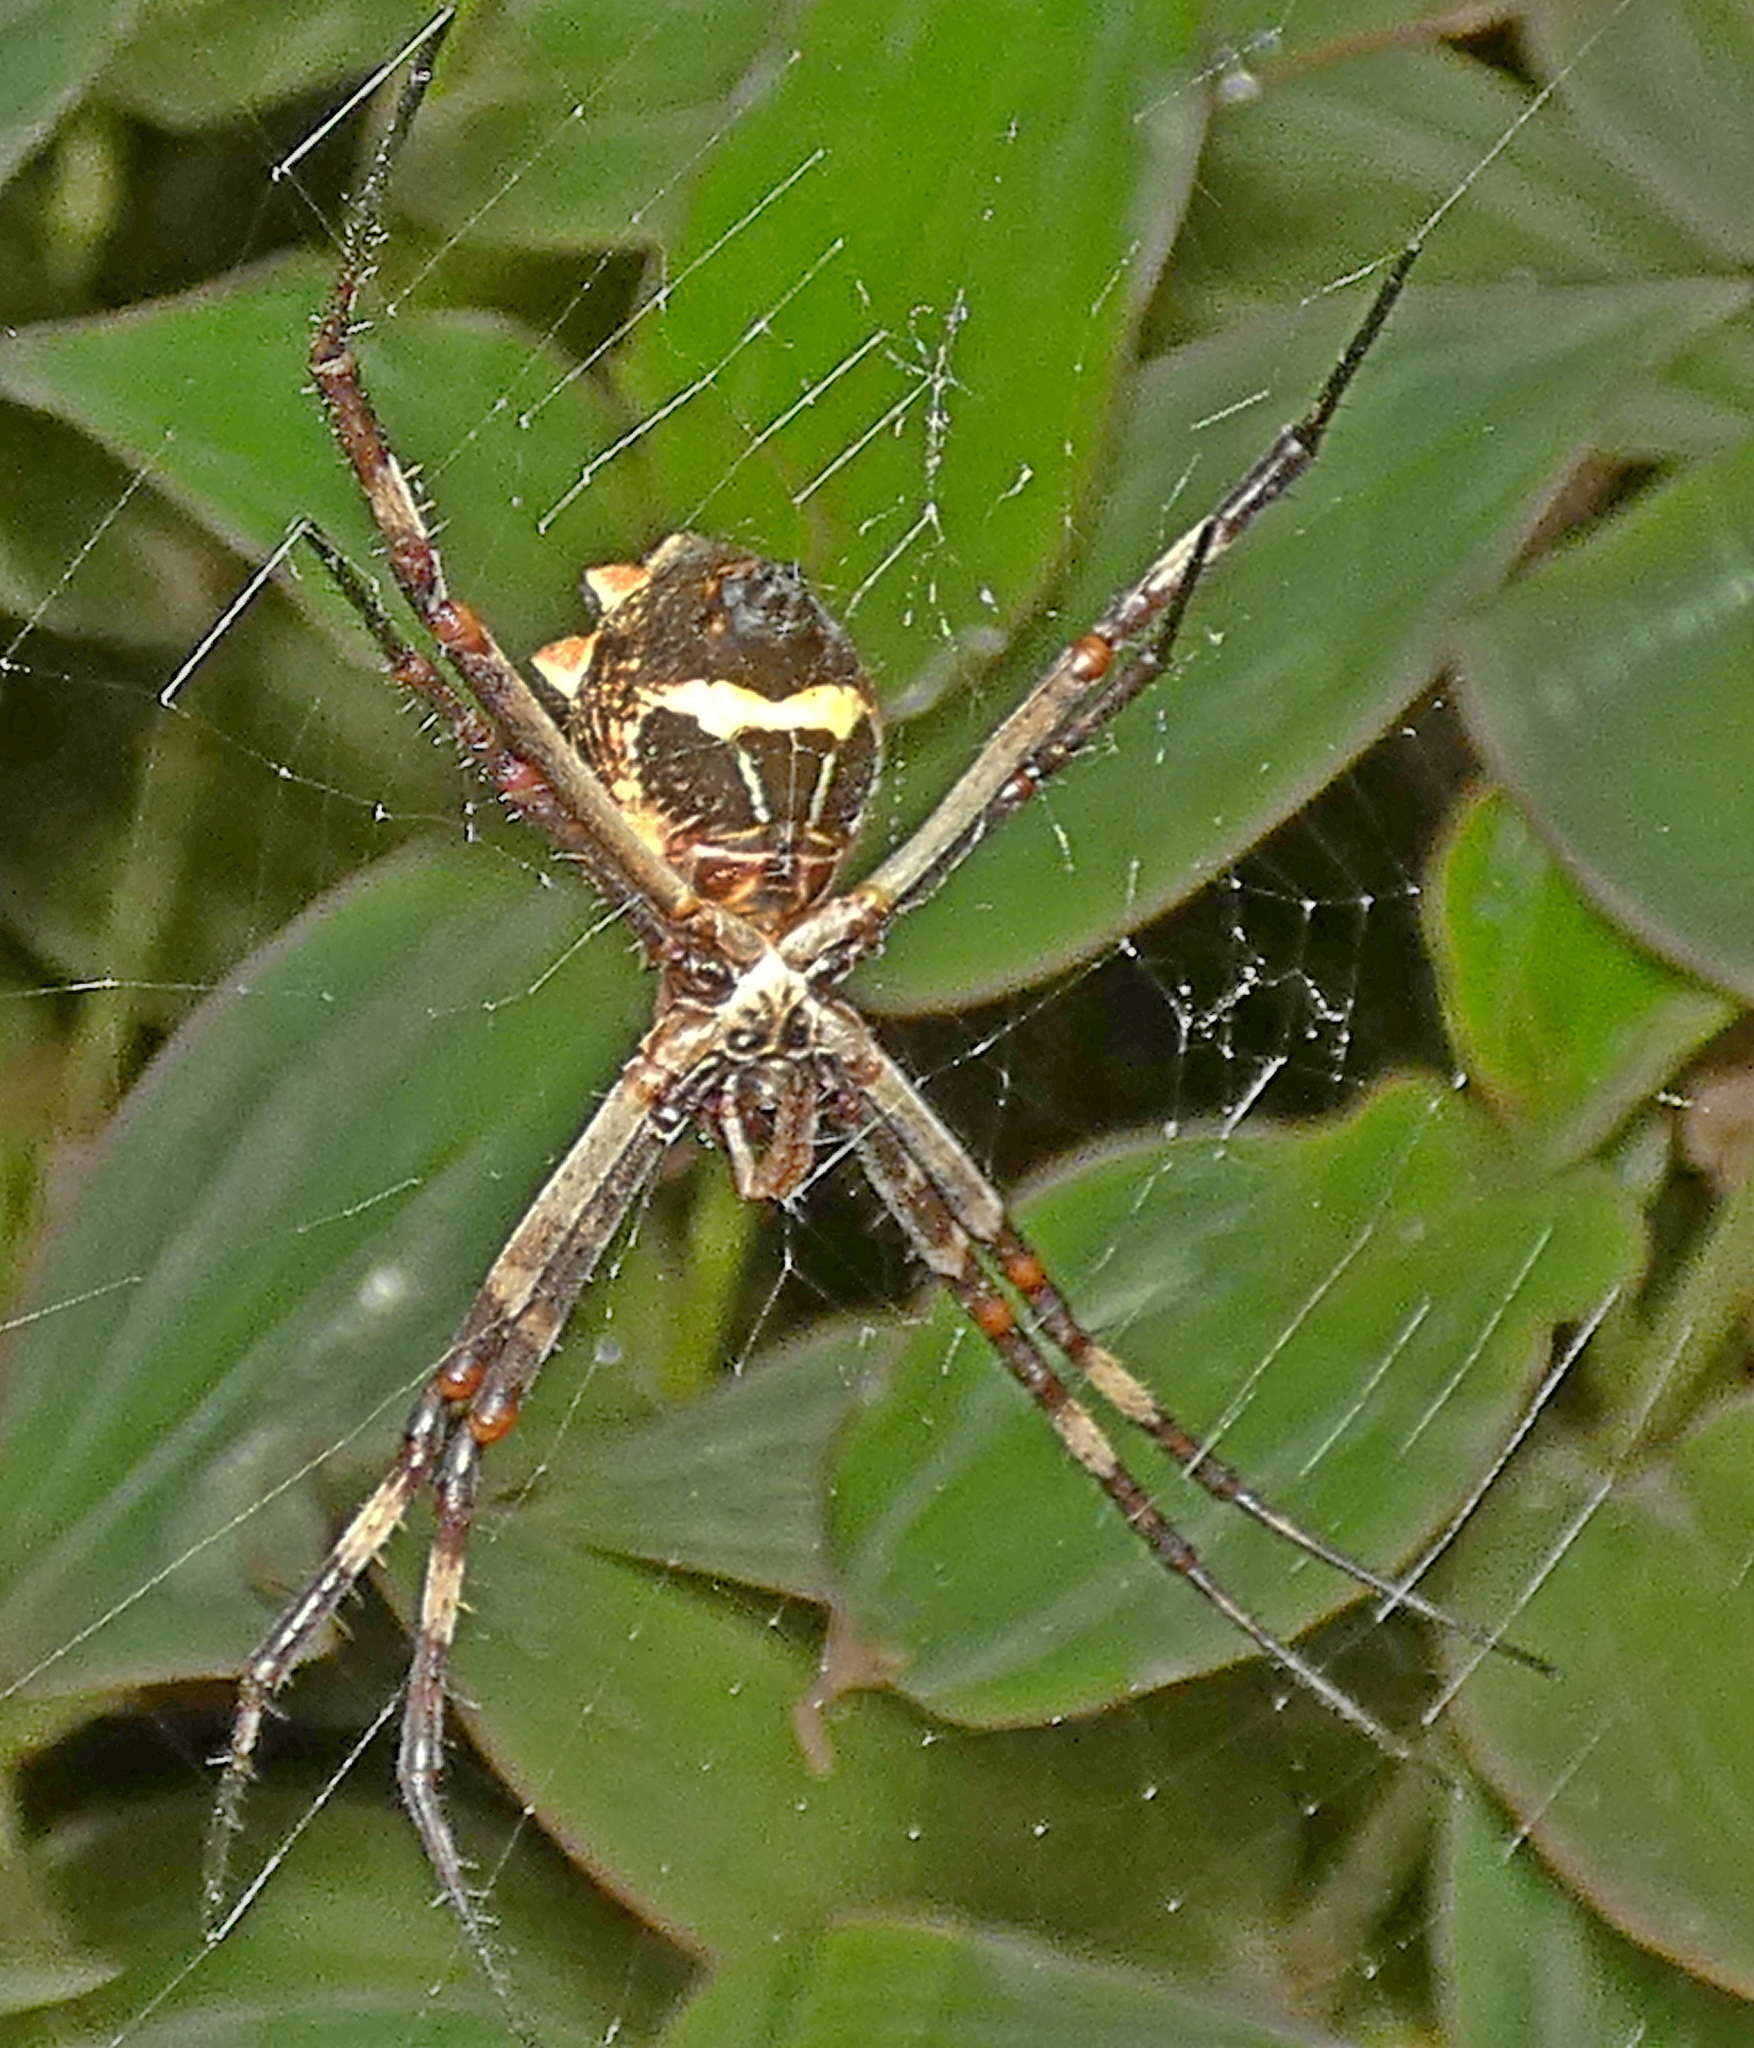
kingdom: Animalia
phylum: Arthropoda
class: Arachnida
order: Araneae
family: Araneidae
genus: Argiope
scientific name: Argiope argentata
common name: Orb weavers
